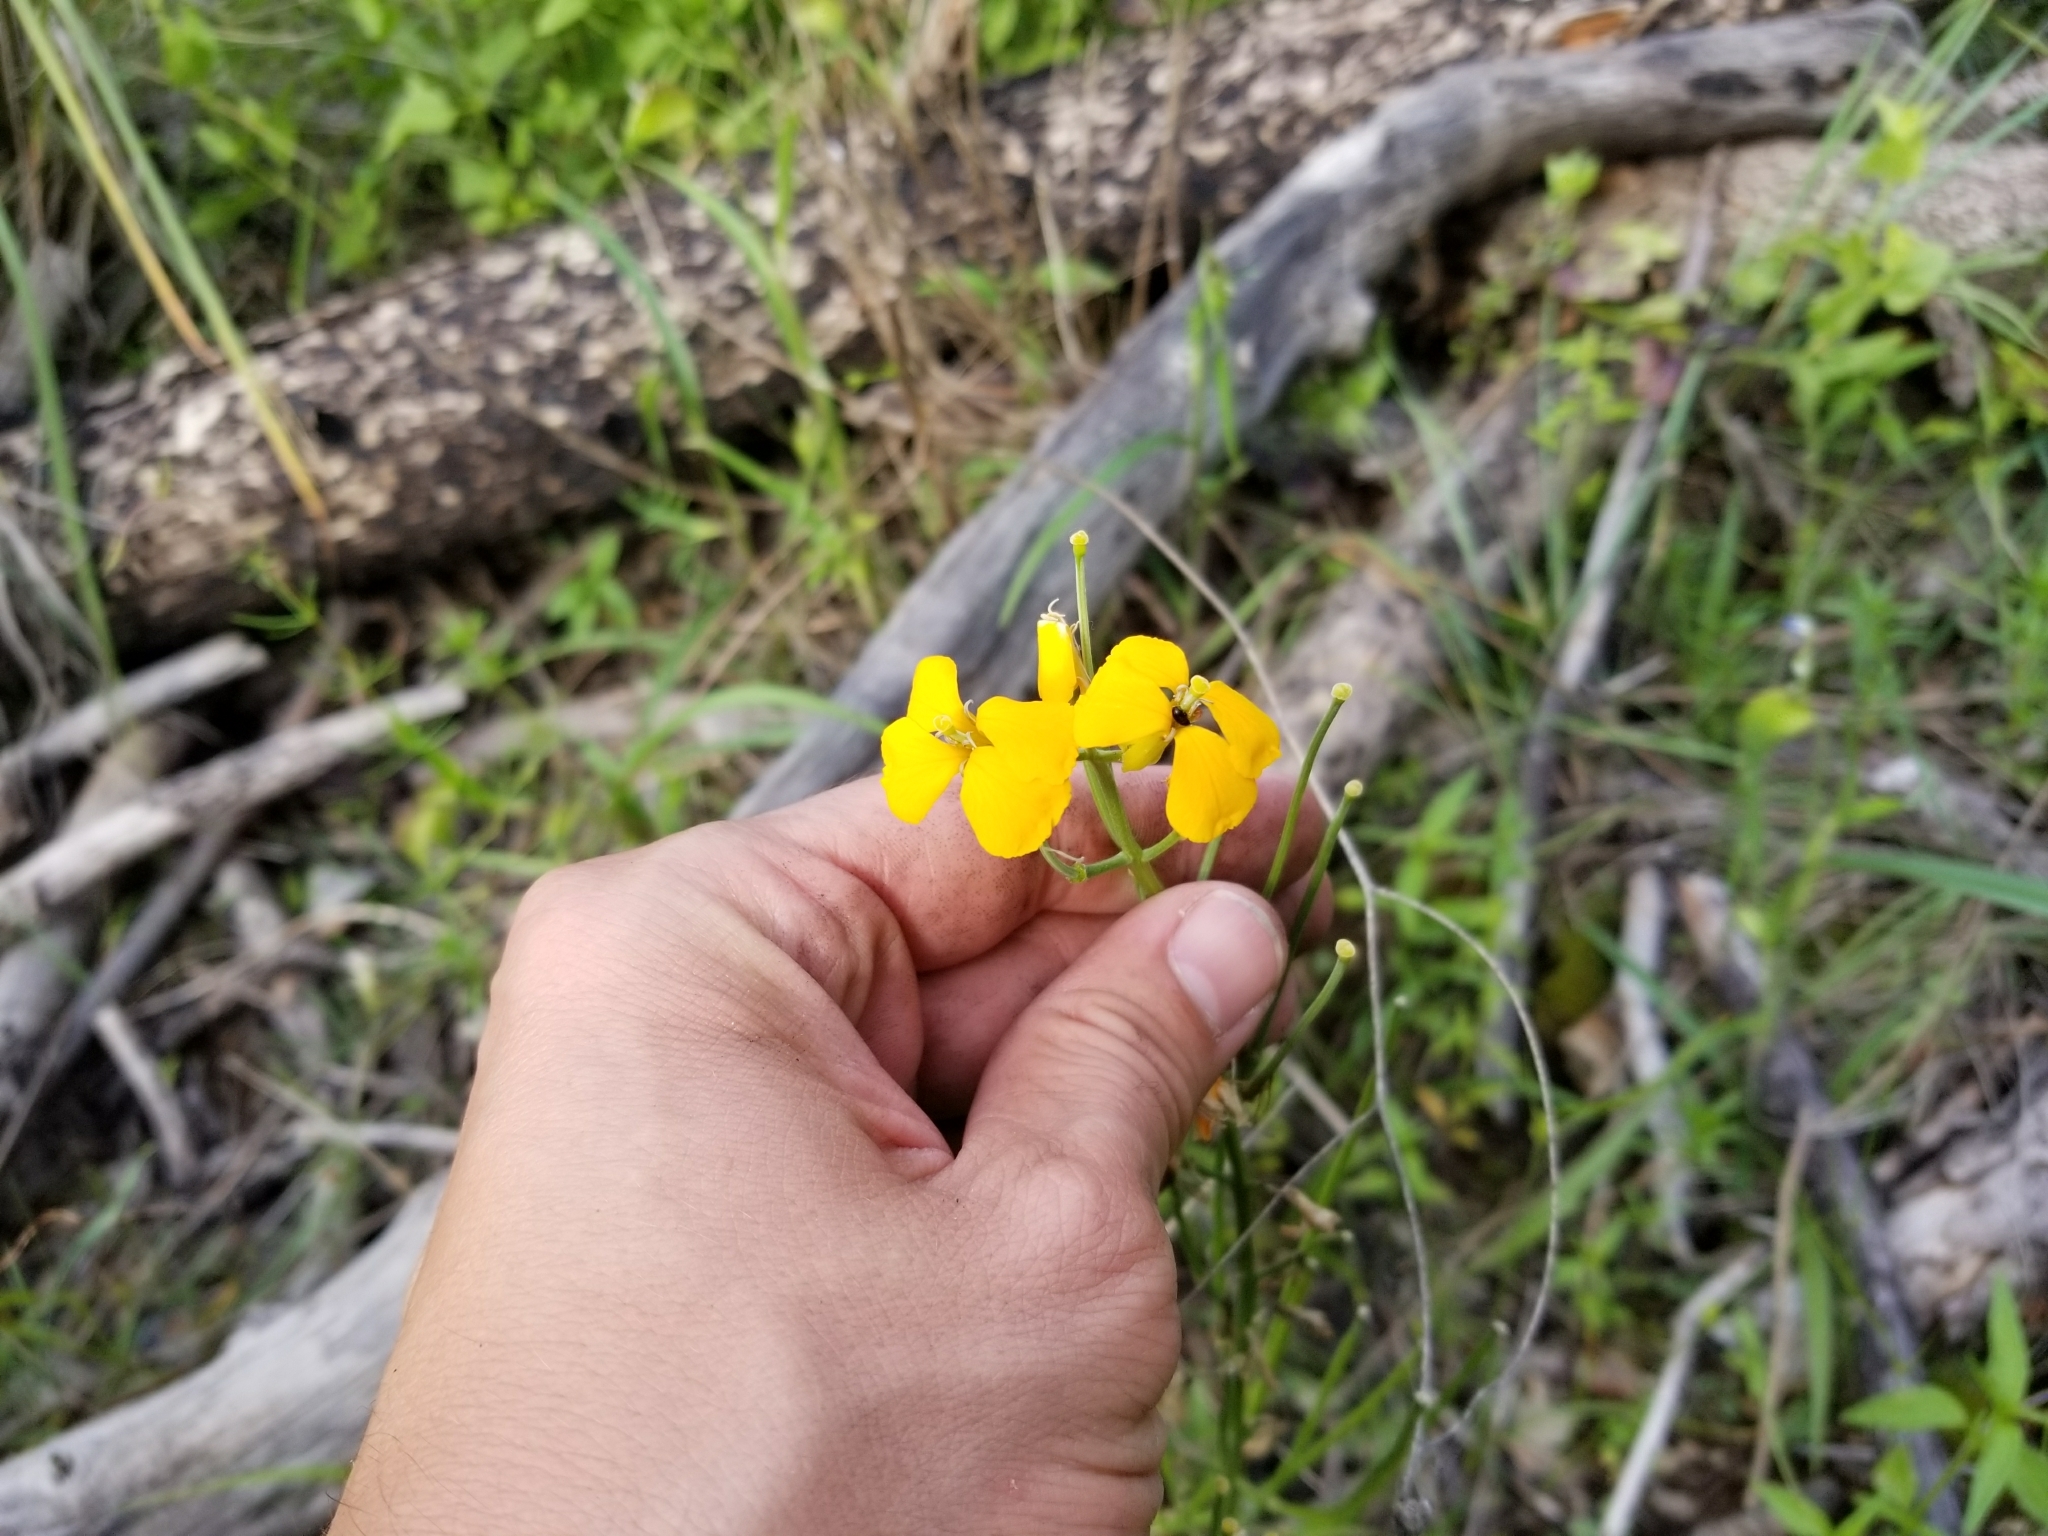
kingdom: Plantae
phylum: Tracheophyta
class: Magnoliopsida
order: Brassicales
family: Brassicaceae
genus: Erysimum
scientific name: Erysimum capitatum
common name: Western wallflower
